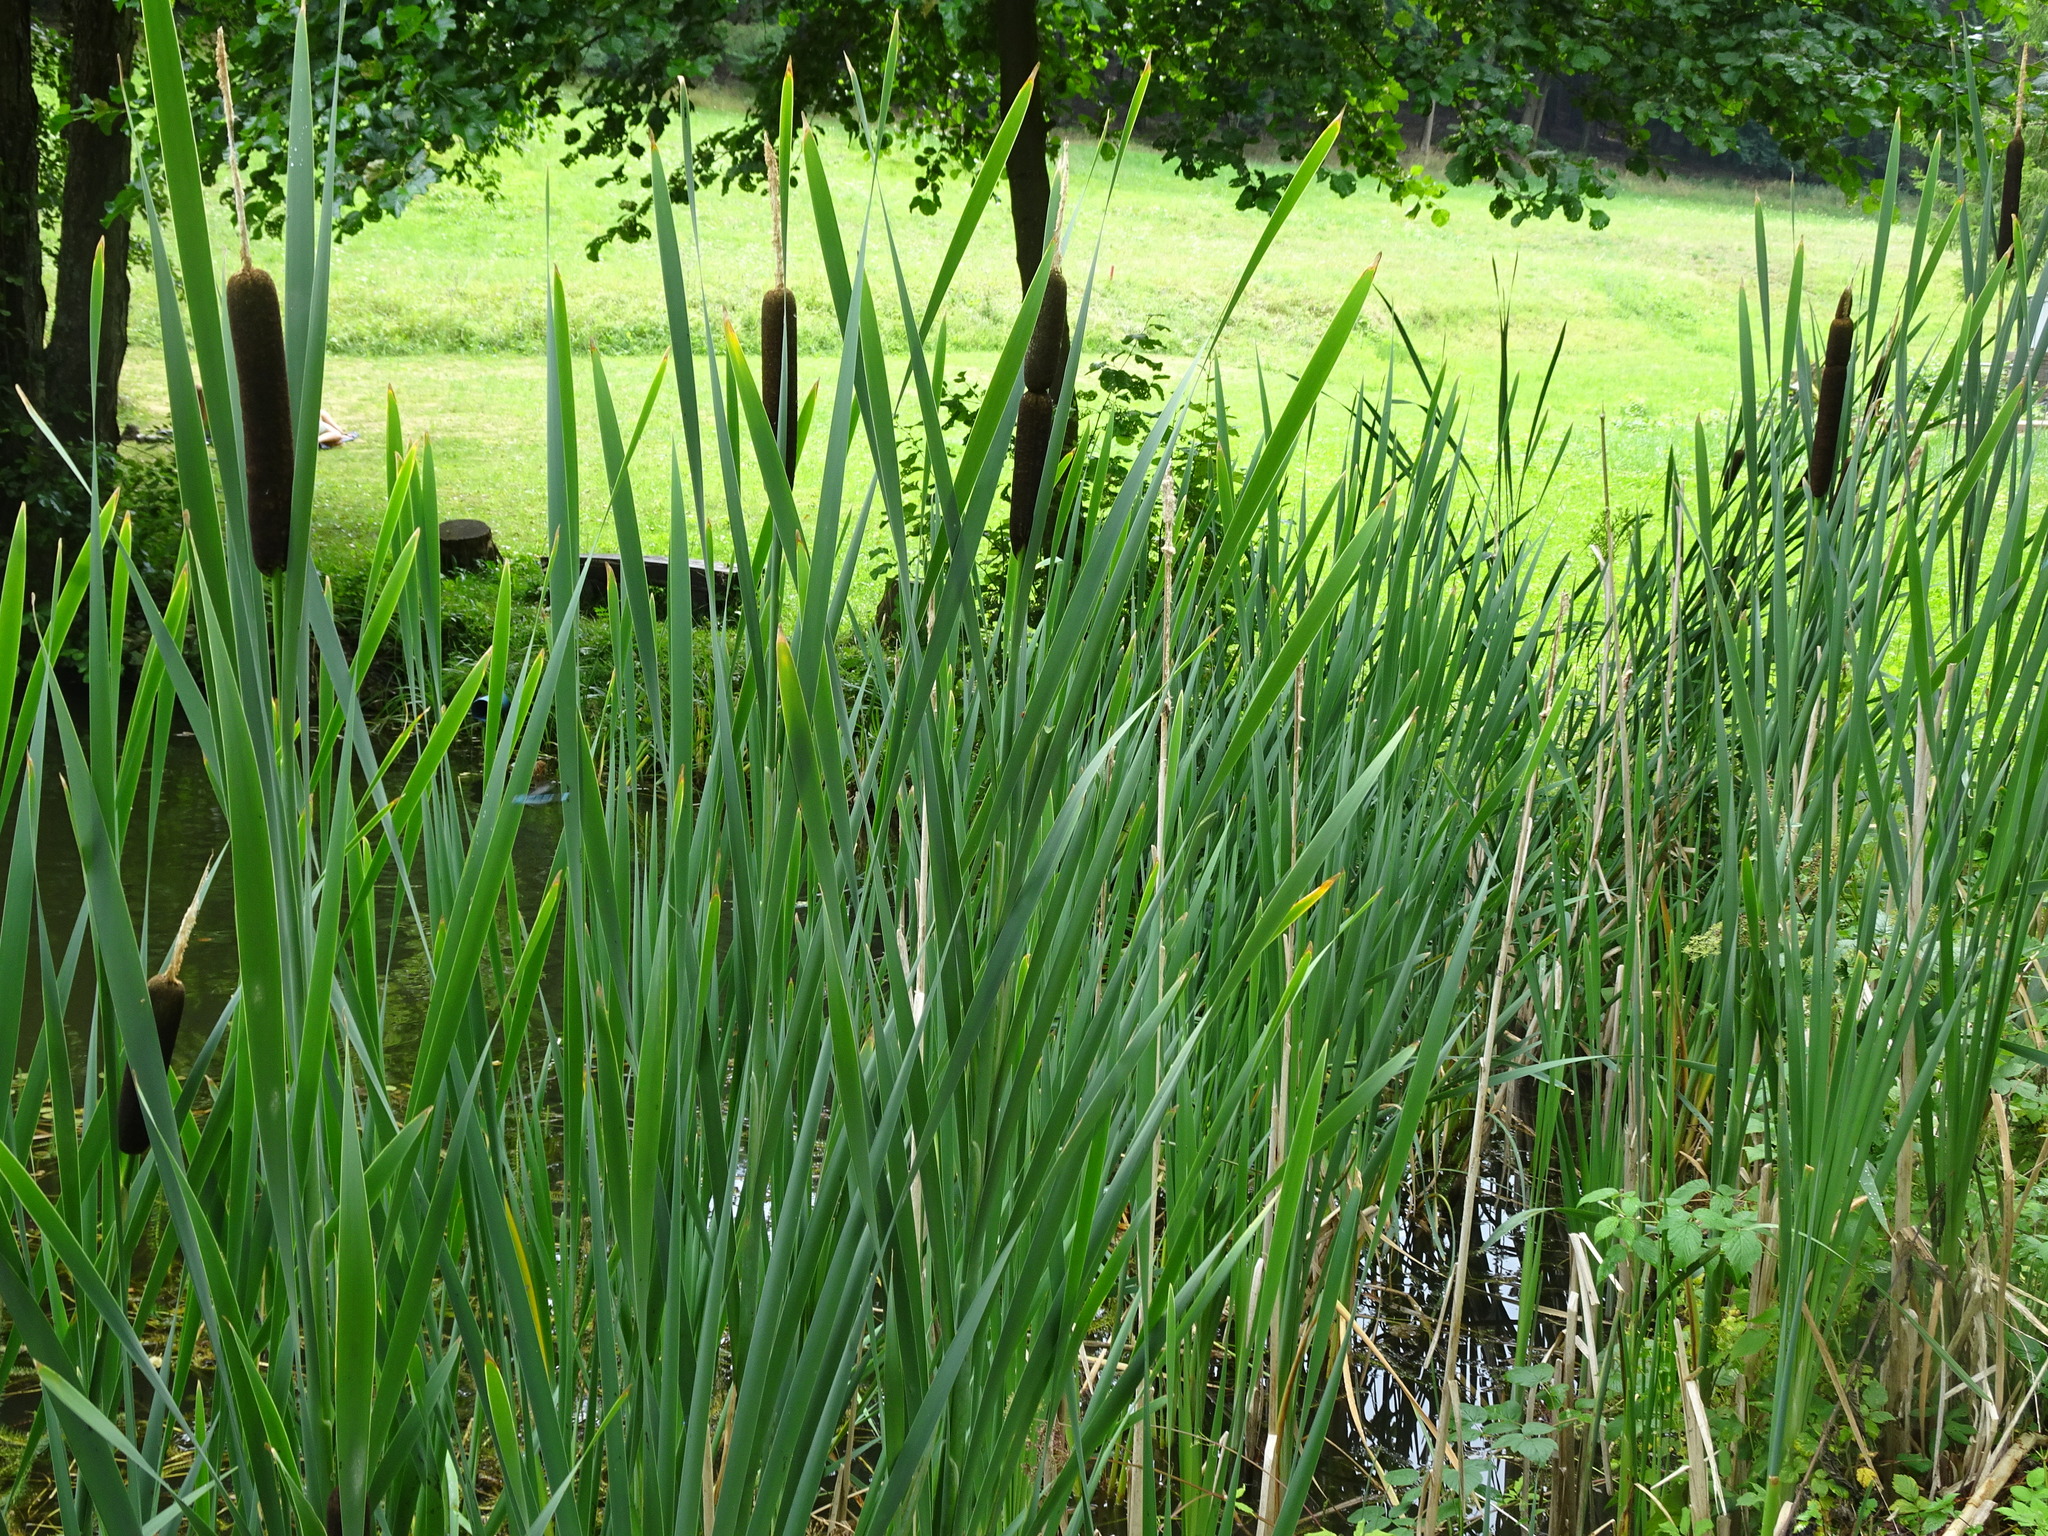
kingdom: Plantae
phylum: Tracheophyta
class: Liliopsida
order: Poales
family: Typhaceae
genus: Typha
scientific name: Typha latifolia
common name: Broadleaf cattail
